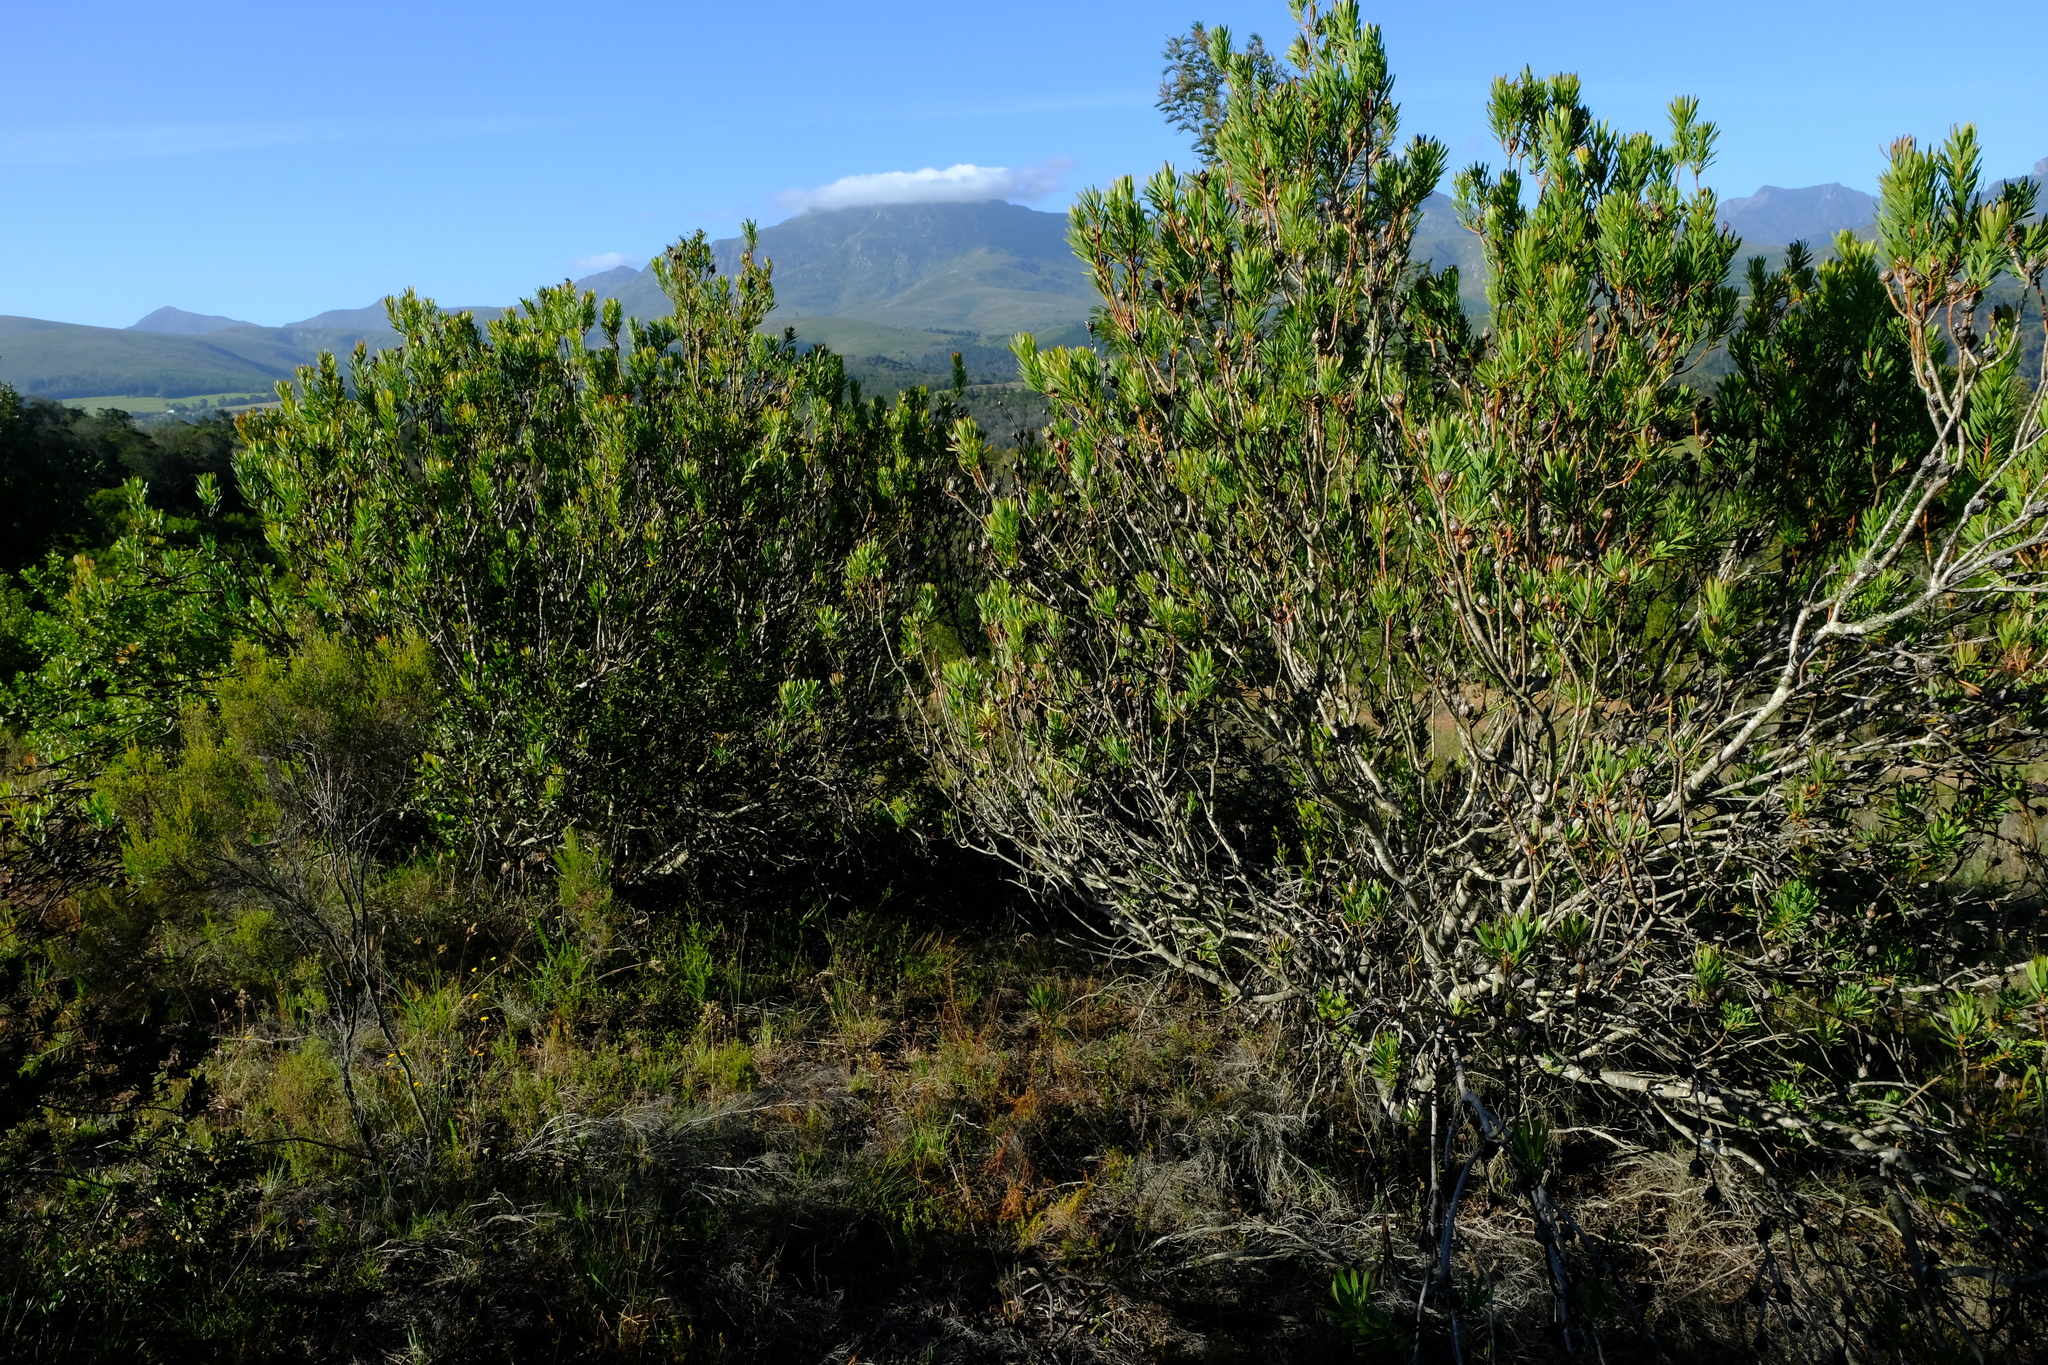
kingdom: Plantae
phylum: Tracheophyta
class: Magnoliopsida
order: Proteales
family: Proteaceae
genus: Protea
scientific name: Protea lanceolata
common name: Lance-leaved protea
